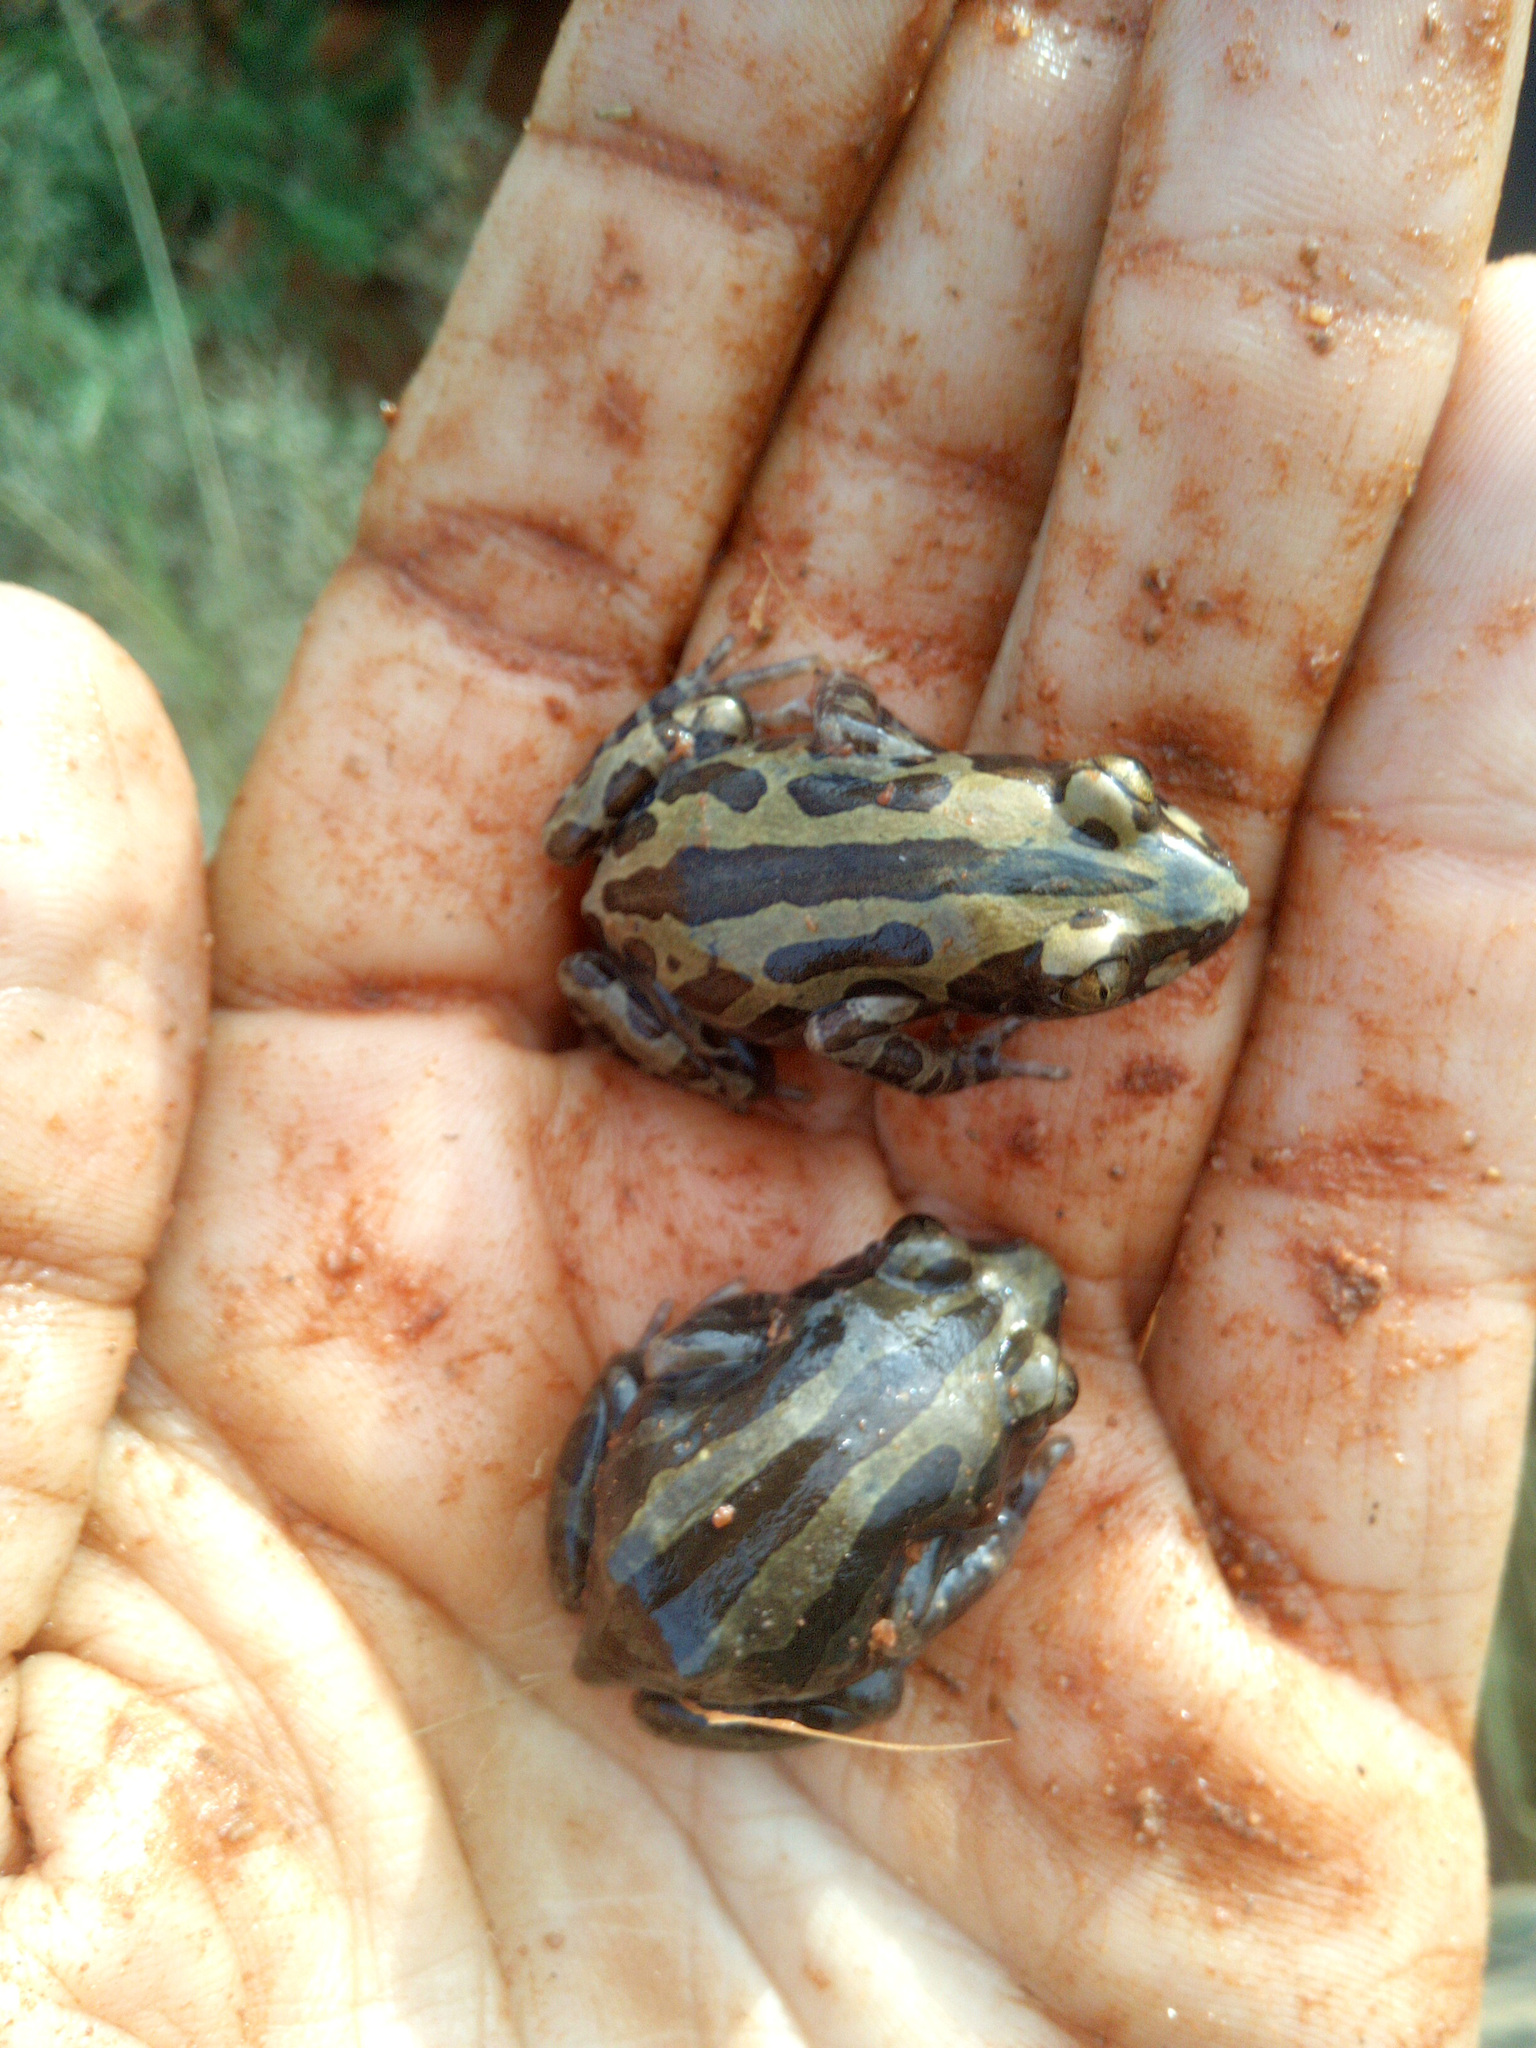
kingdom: Animalia
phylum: Chordata
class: Amphibia
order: Anura
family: Hyperoliidae
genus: Kassina
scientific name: Kassina senegalensis
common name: Senegal land frog
